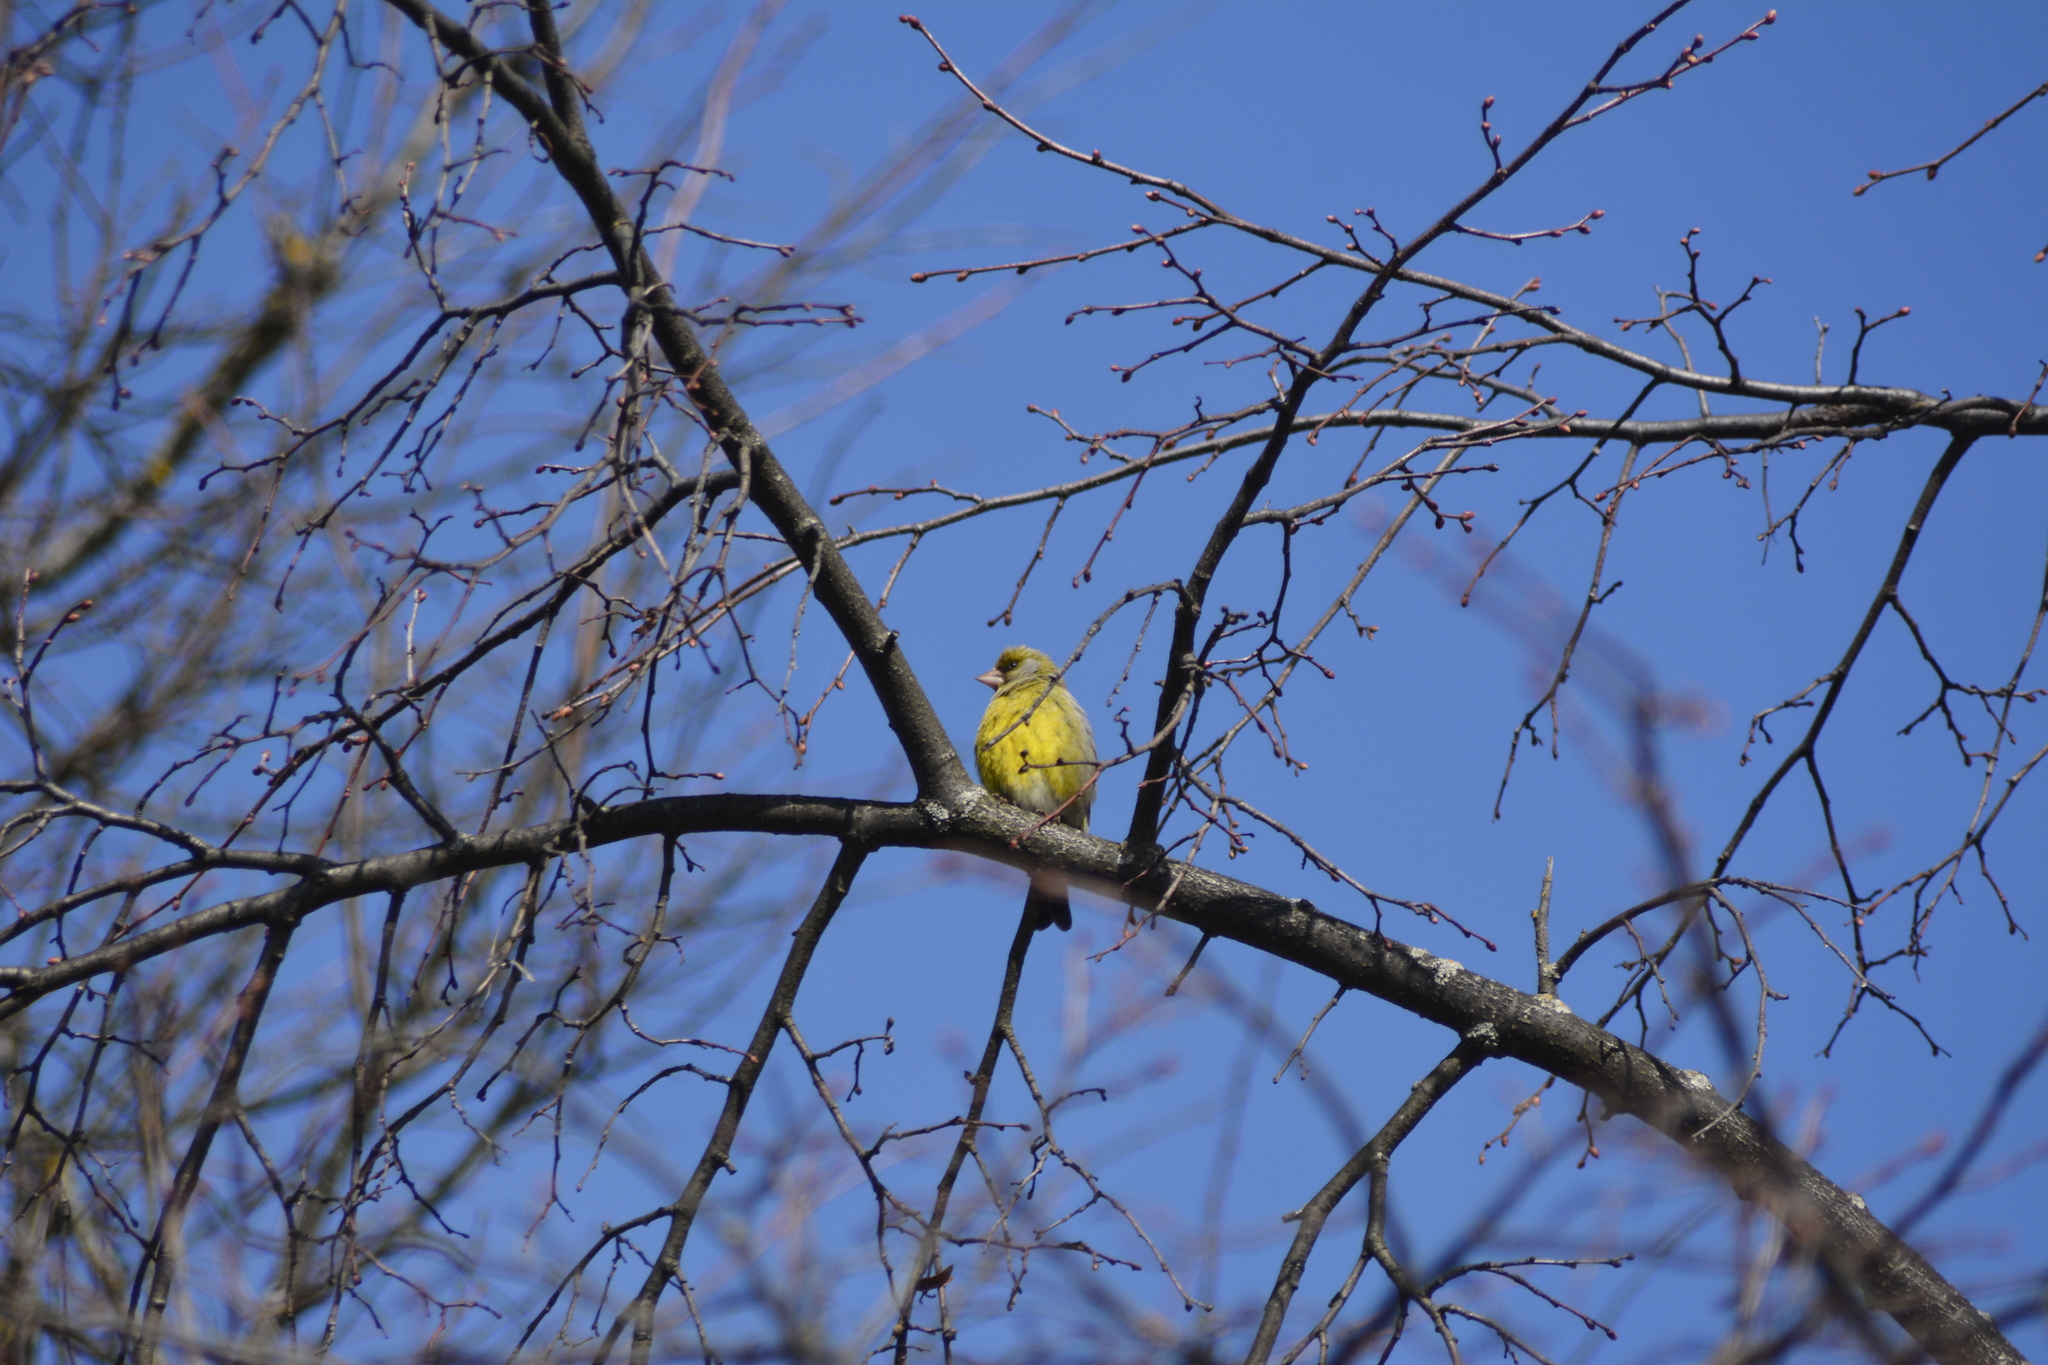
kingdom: Plantae
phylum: Tracheophyta
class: Liliopsida
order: Poales
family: Poaceae
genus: Chloris
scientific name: Chloris chloris
